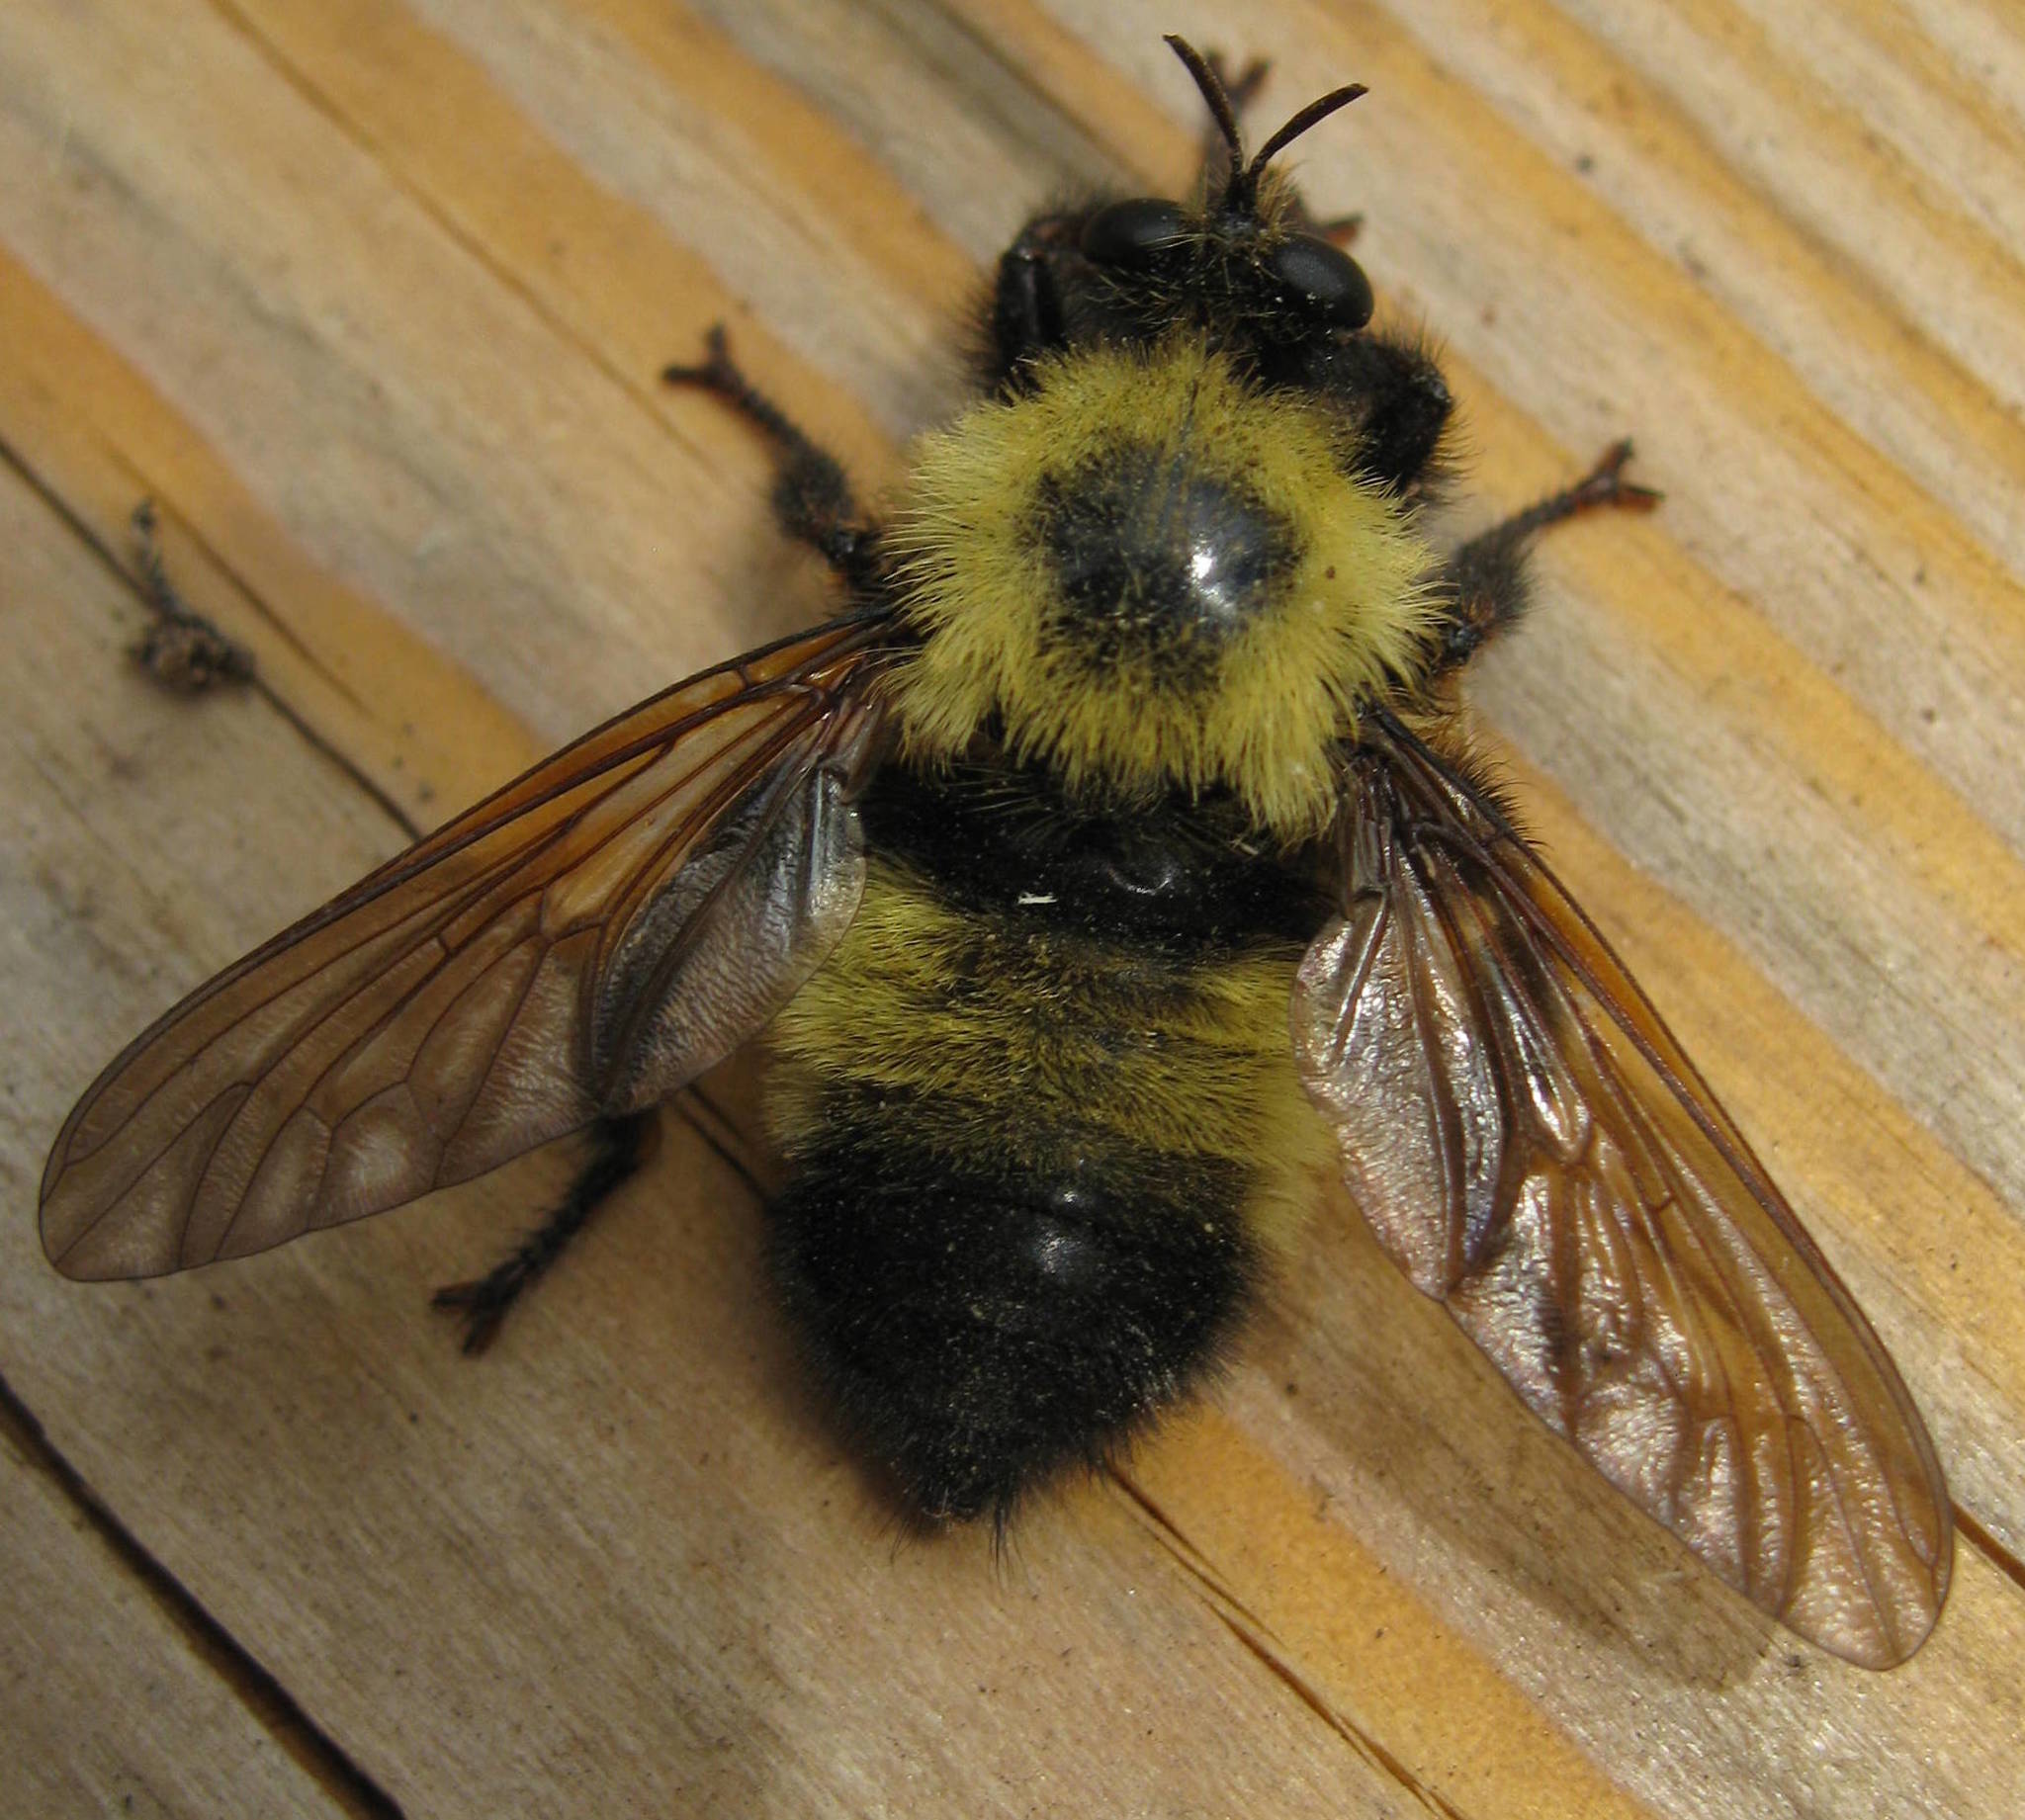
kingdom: Animalia
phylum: Arthropoda
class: Insecta
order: Diptera
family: Asilidae
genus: Laphria
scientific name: Laphria thoracica
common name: Bumble bee mimic robber fly
